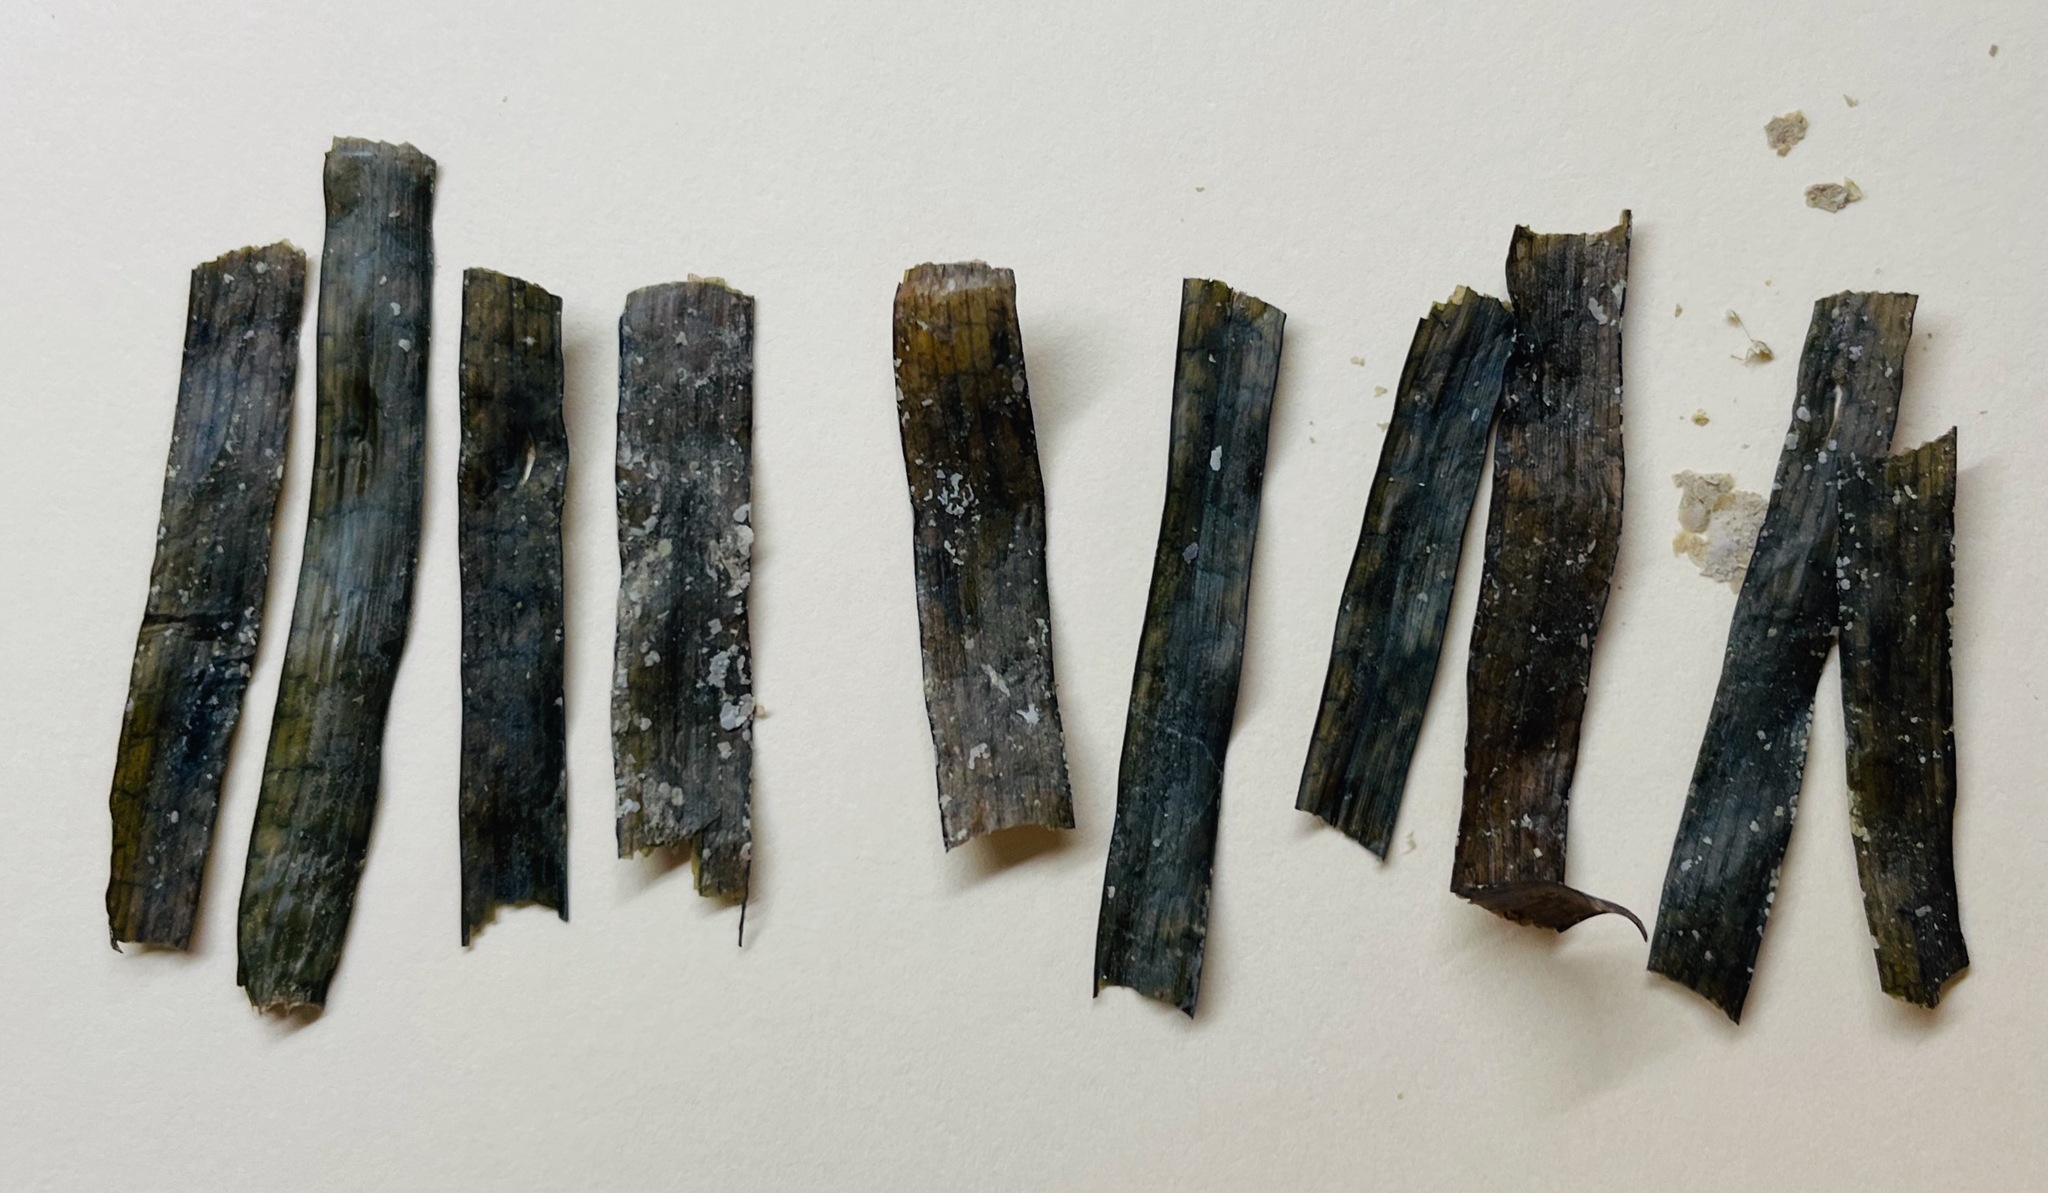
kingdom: Plantae
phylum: Tracheophyta
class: Liliopsida
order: Alismatales
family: Hydrocharitaceae
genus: Thalassia
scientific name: Thalassia testudinum
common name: Species code: tt
